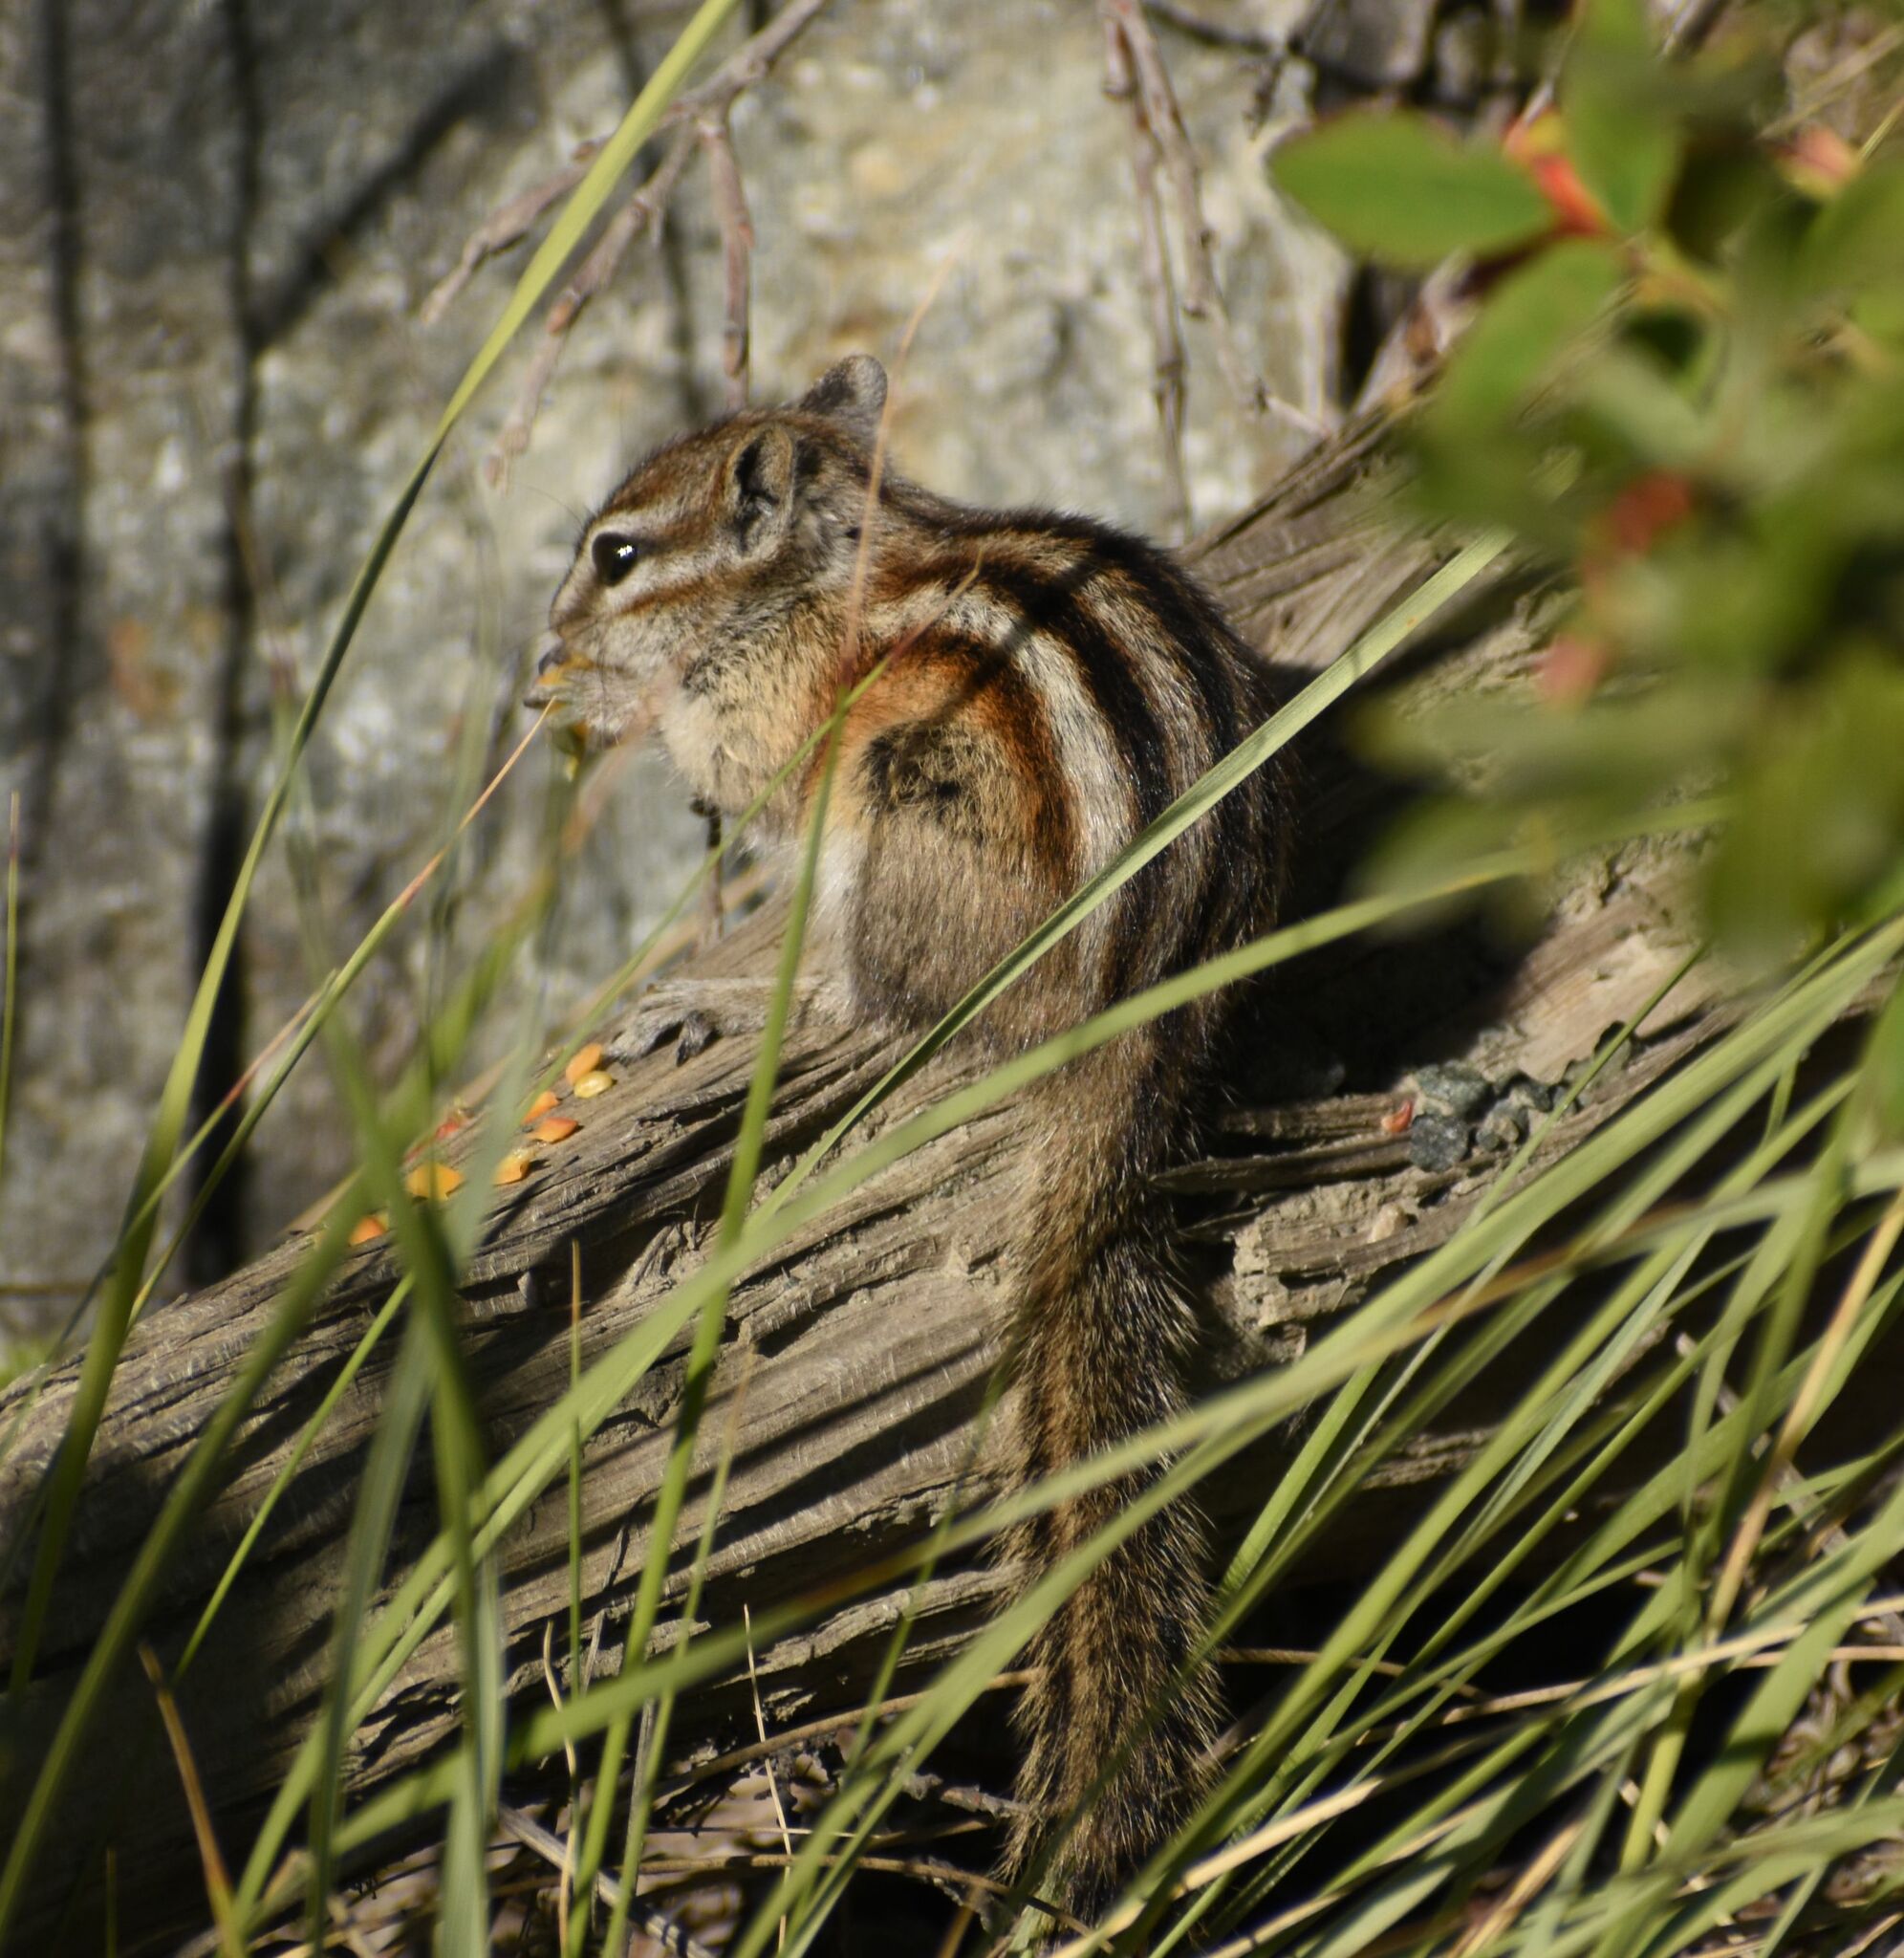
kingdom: Animalia
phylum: Chordata
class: Mammalia
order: Rodentia
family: Sciuridae
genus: Tamias
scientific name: Tamias minimus
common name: Least chipmunk
